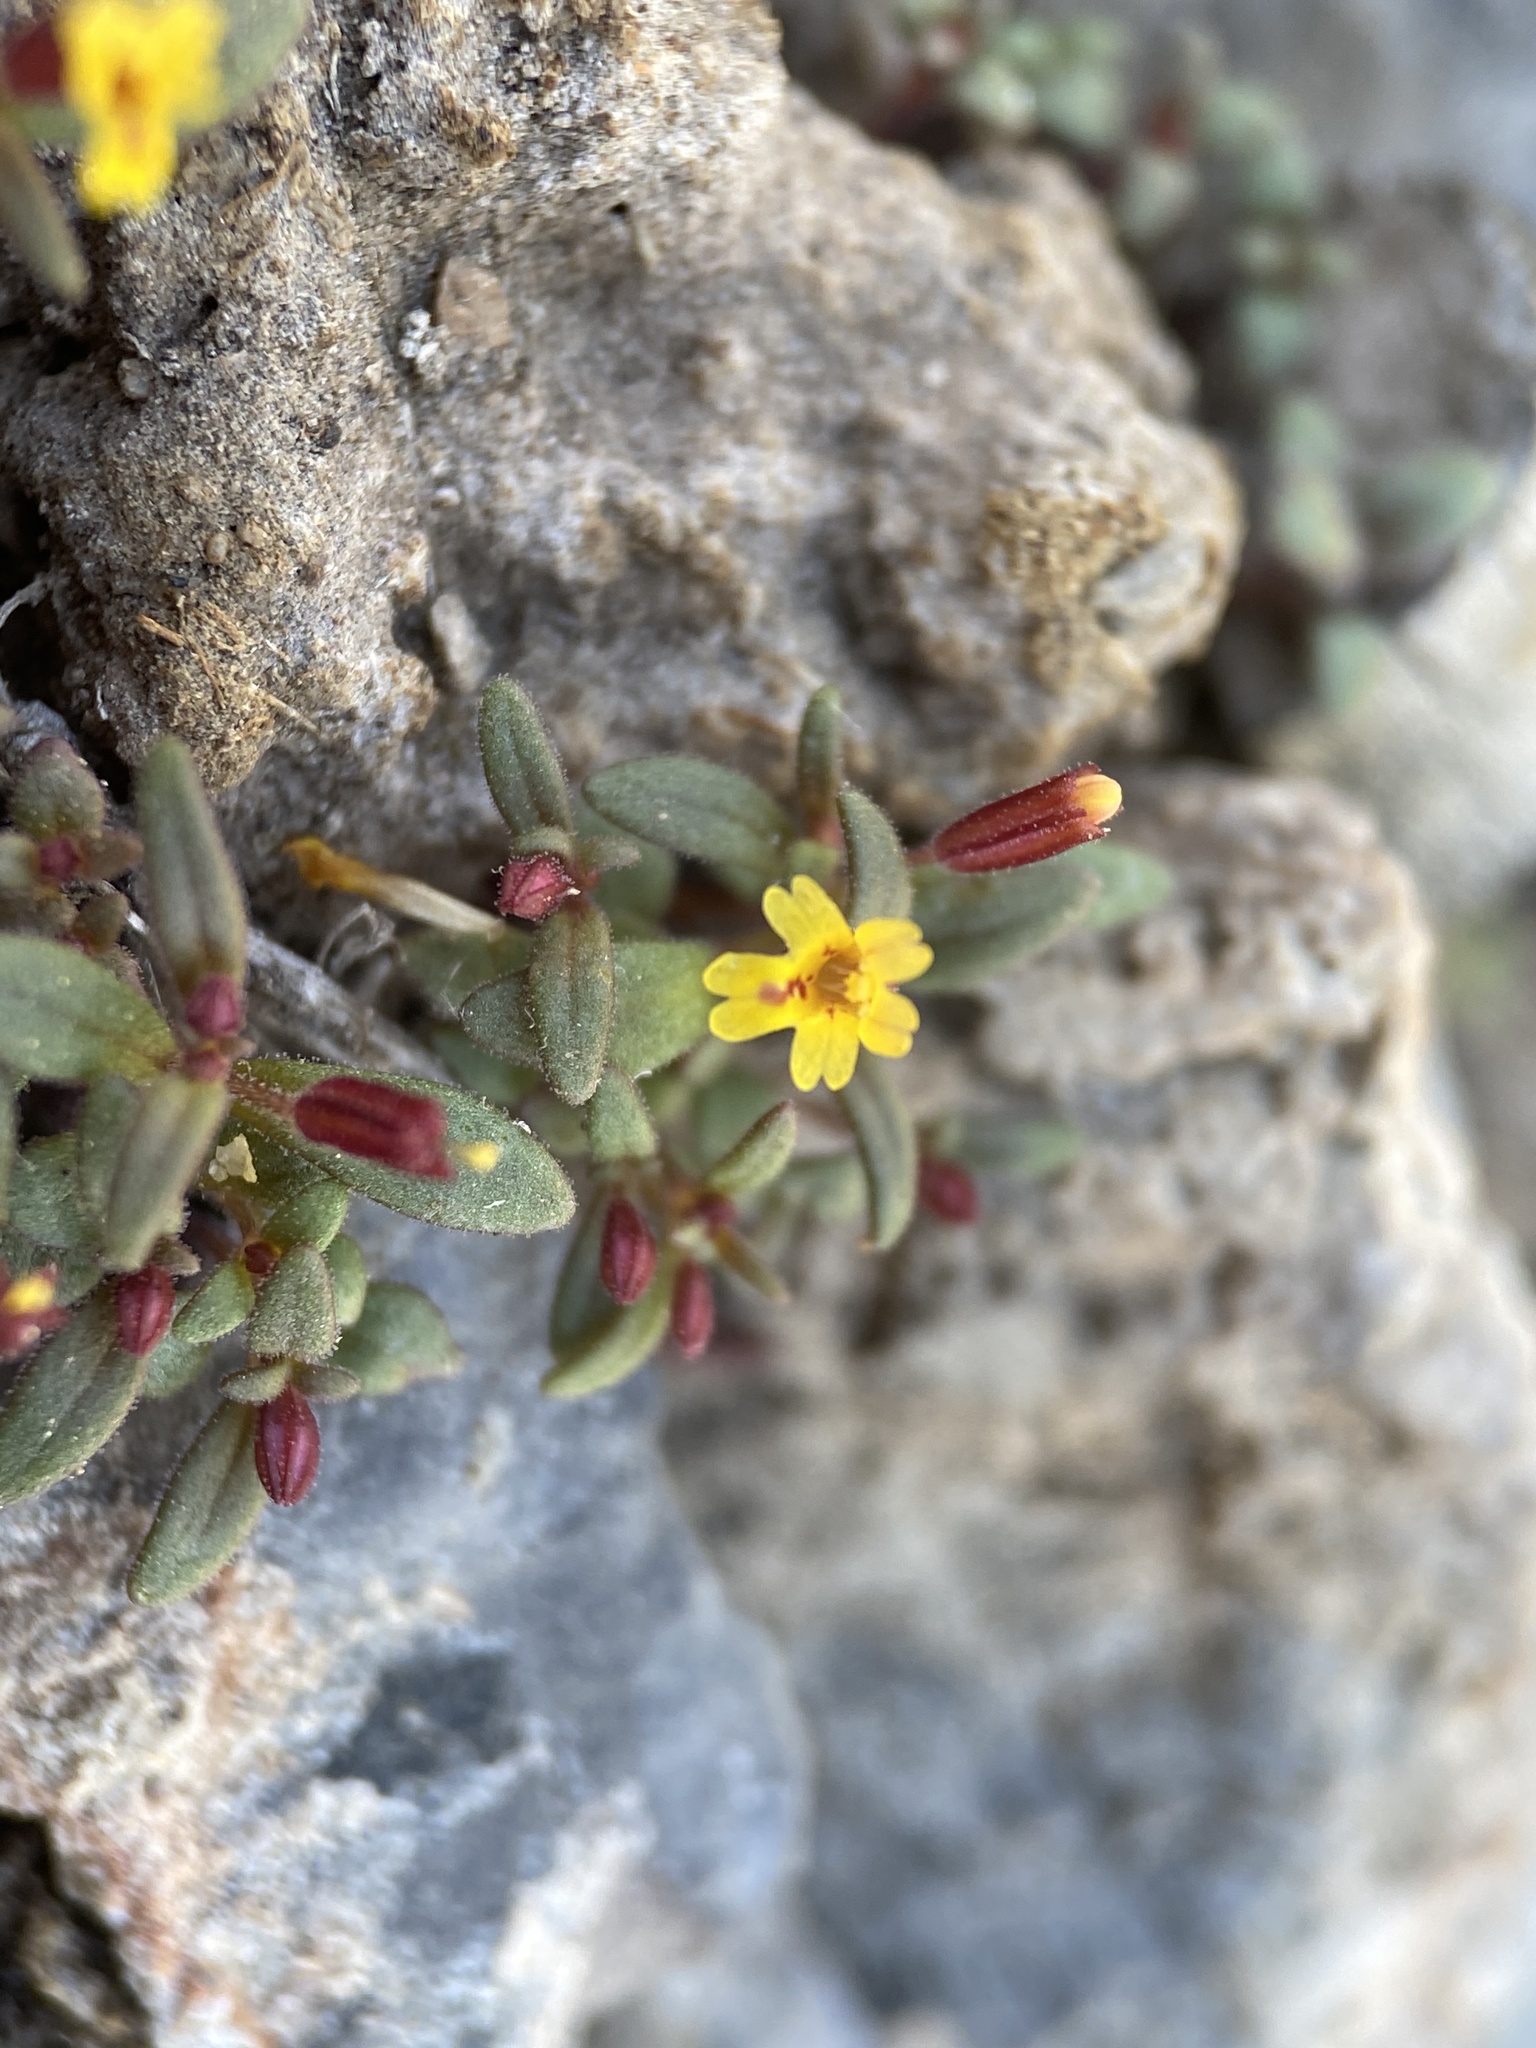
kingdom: Plantae
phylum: Tracheophyta
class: Magnoliopsida
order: Lamiales
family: Phrymaceae
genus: Erythranthe
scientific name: Erythranthe suksdorfii
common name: Suksdorf's monkeyflower
